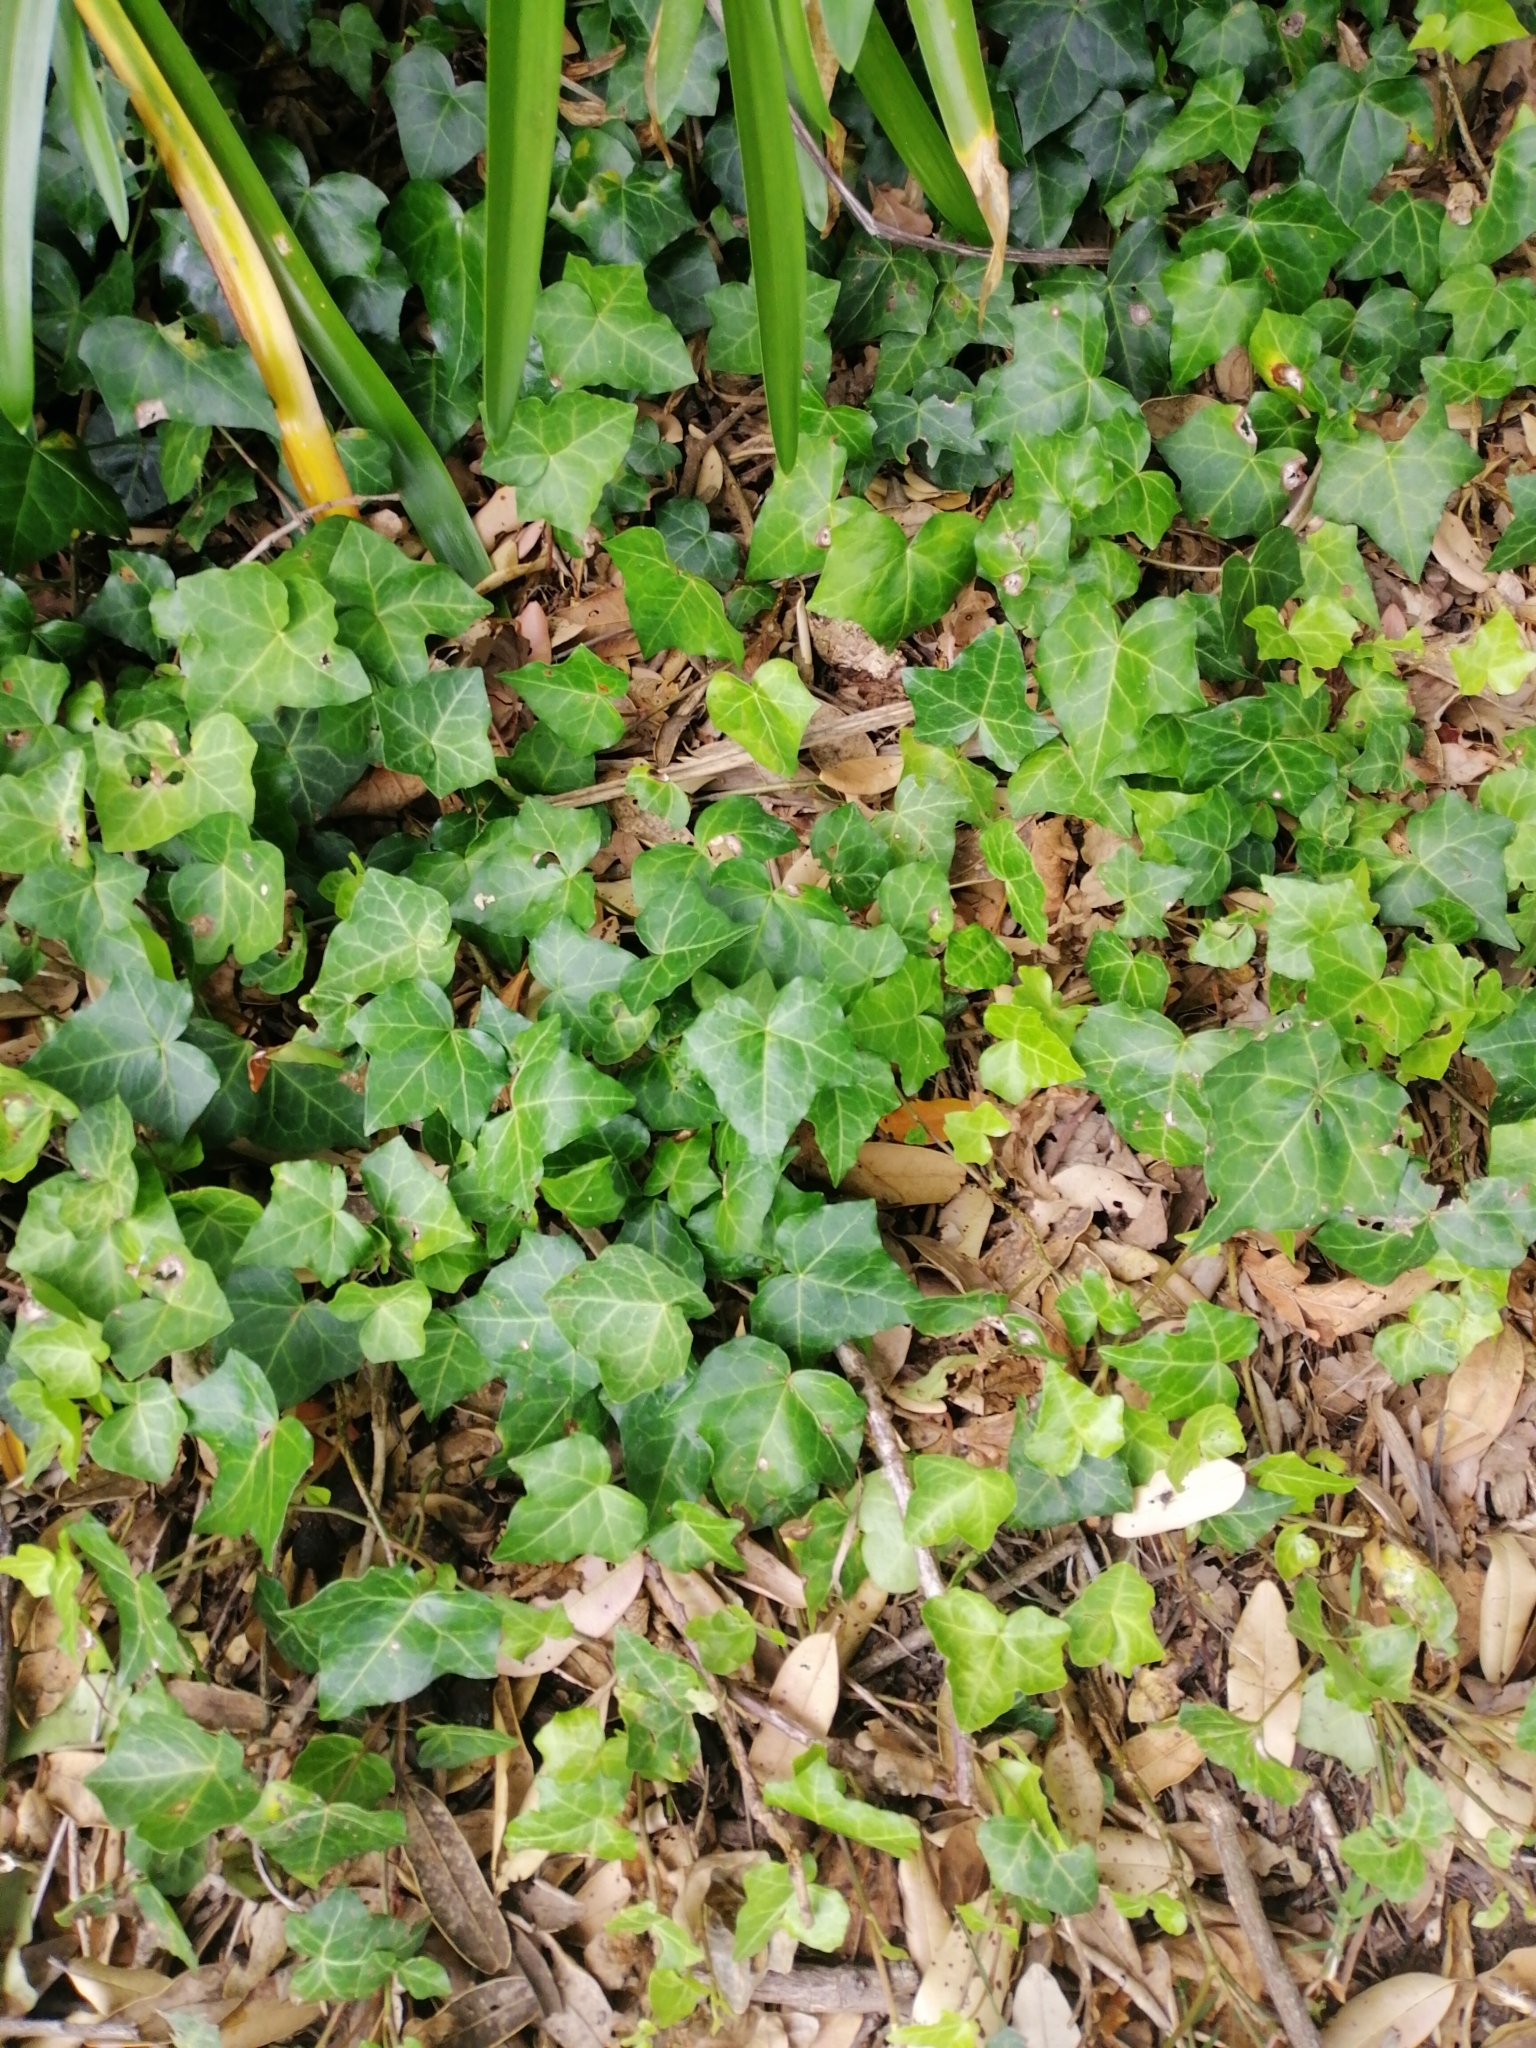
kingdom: Plantae
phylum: Tracheophyta
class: Magnoliopsida
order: Apiales
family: Araliaceae
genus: Hedera
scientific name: Hedera canariensis
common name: Madeira ivy
